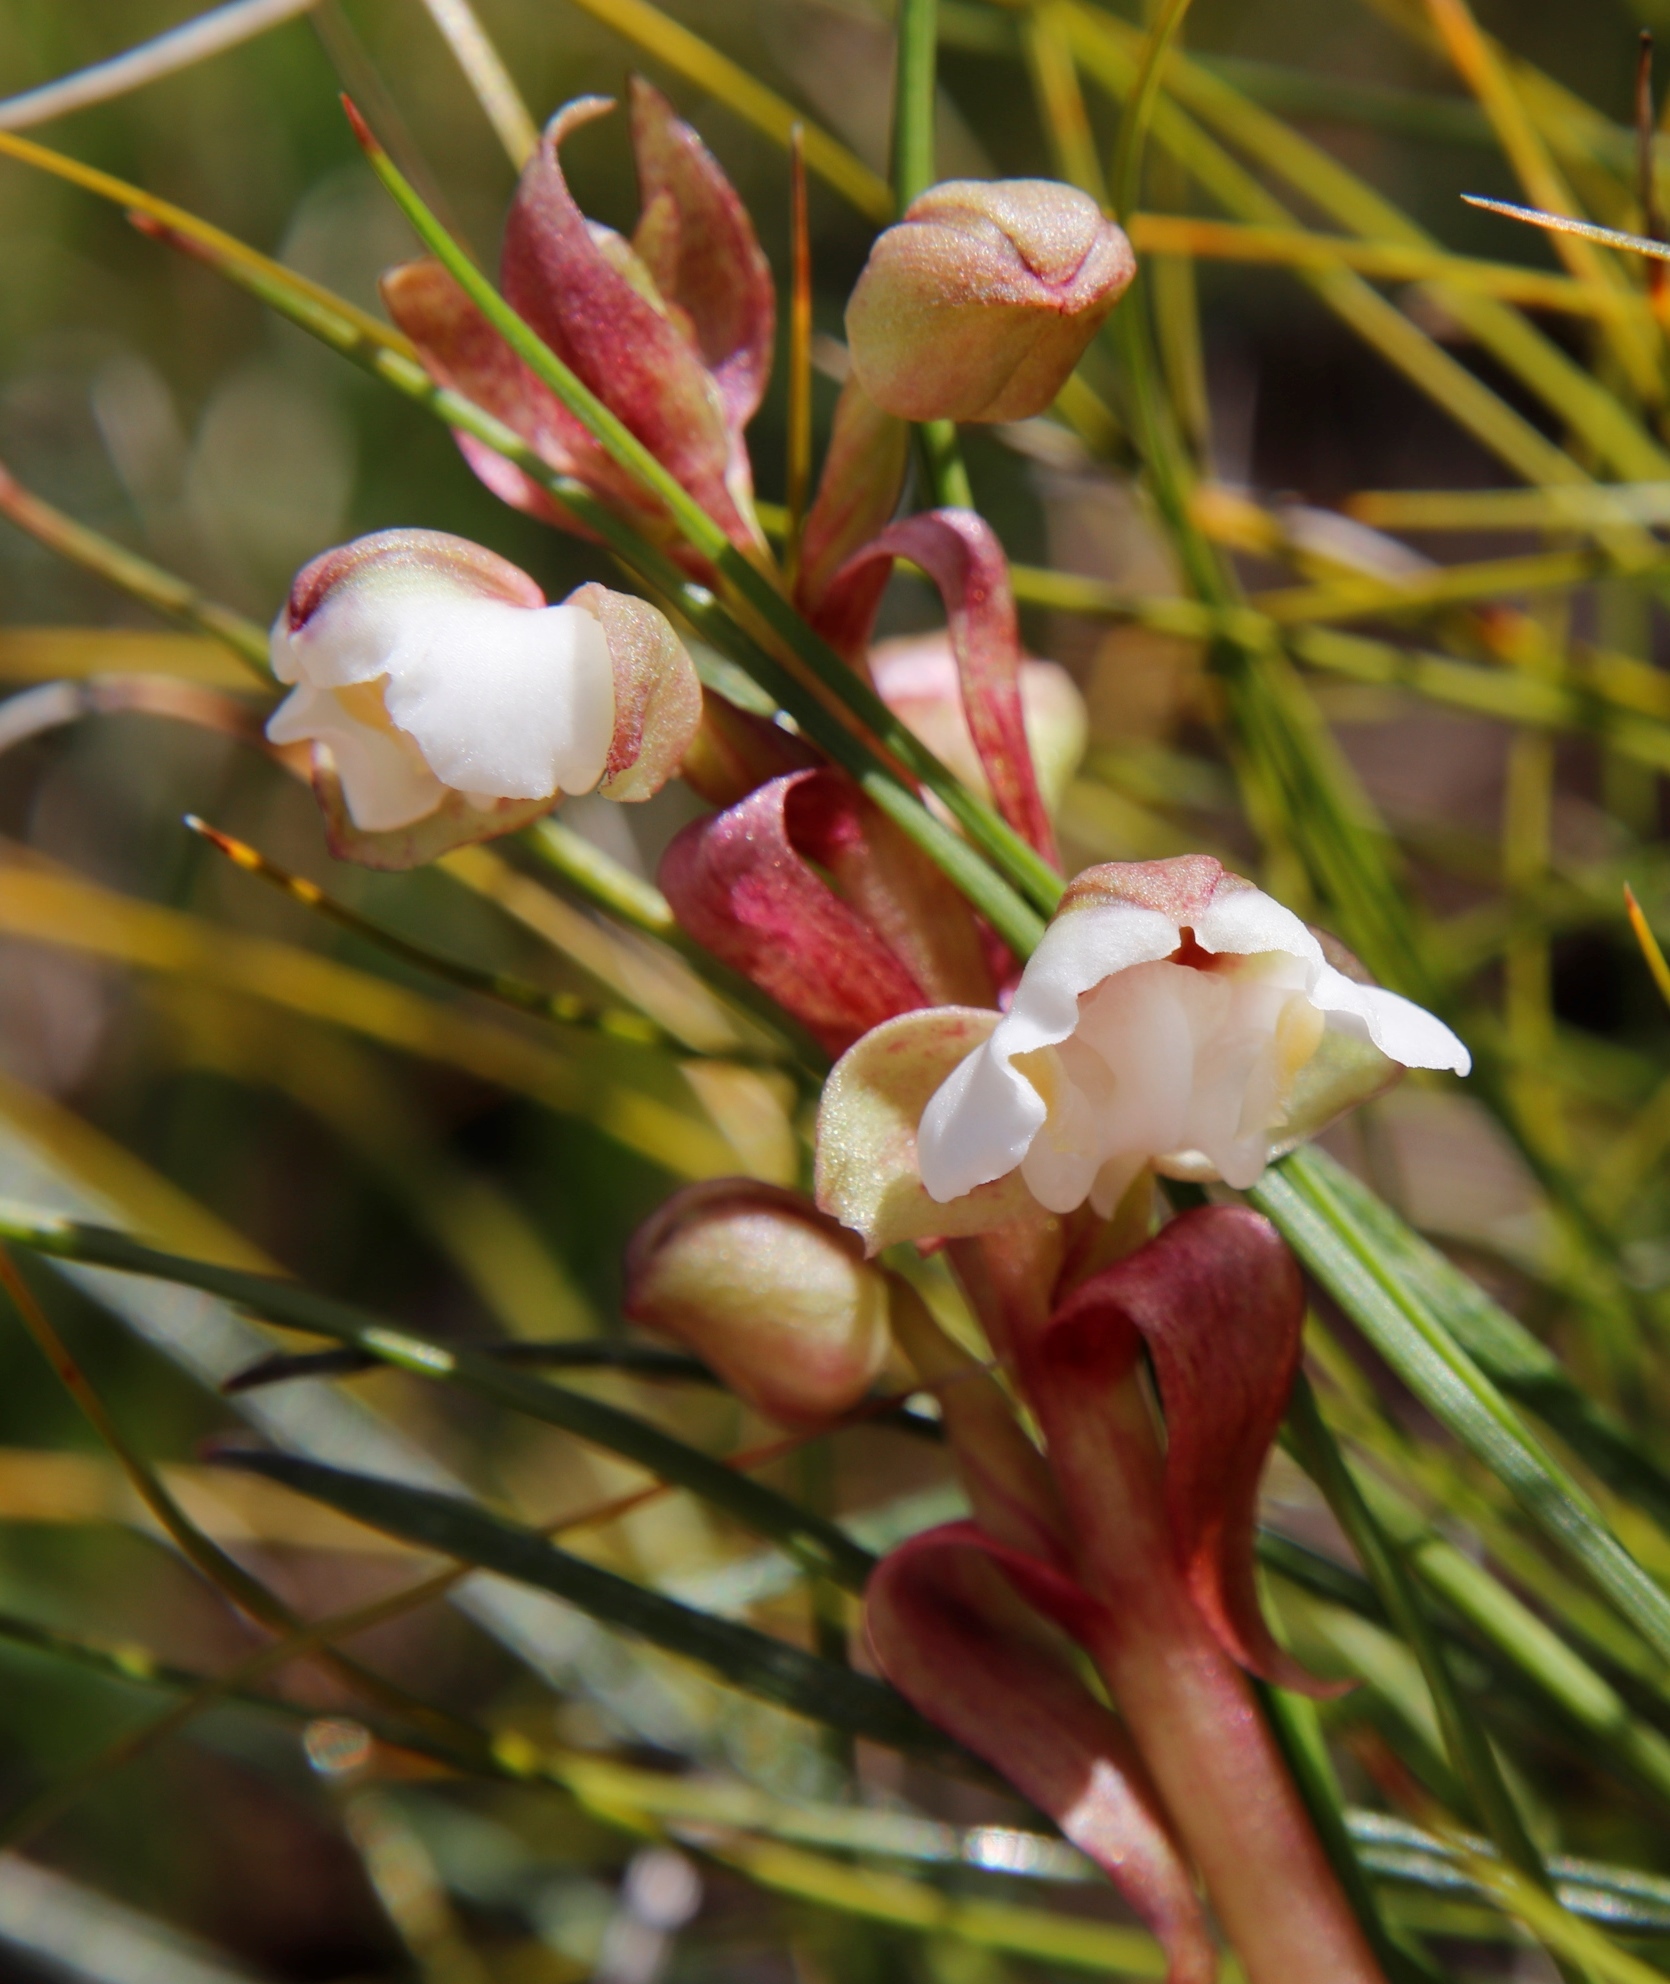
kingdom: Plantae
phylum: Tracheophyta
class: Liliopsida
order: Asparagales
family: Orchidaceae
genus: Pterygodium
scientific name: Pterygodium cooperi
